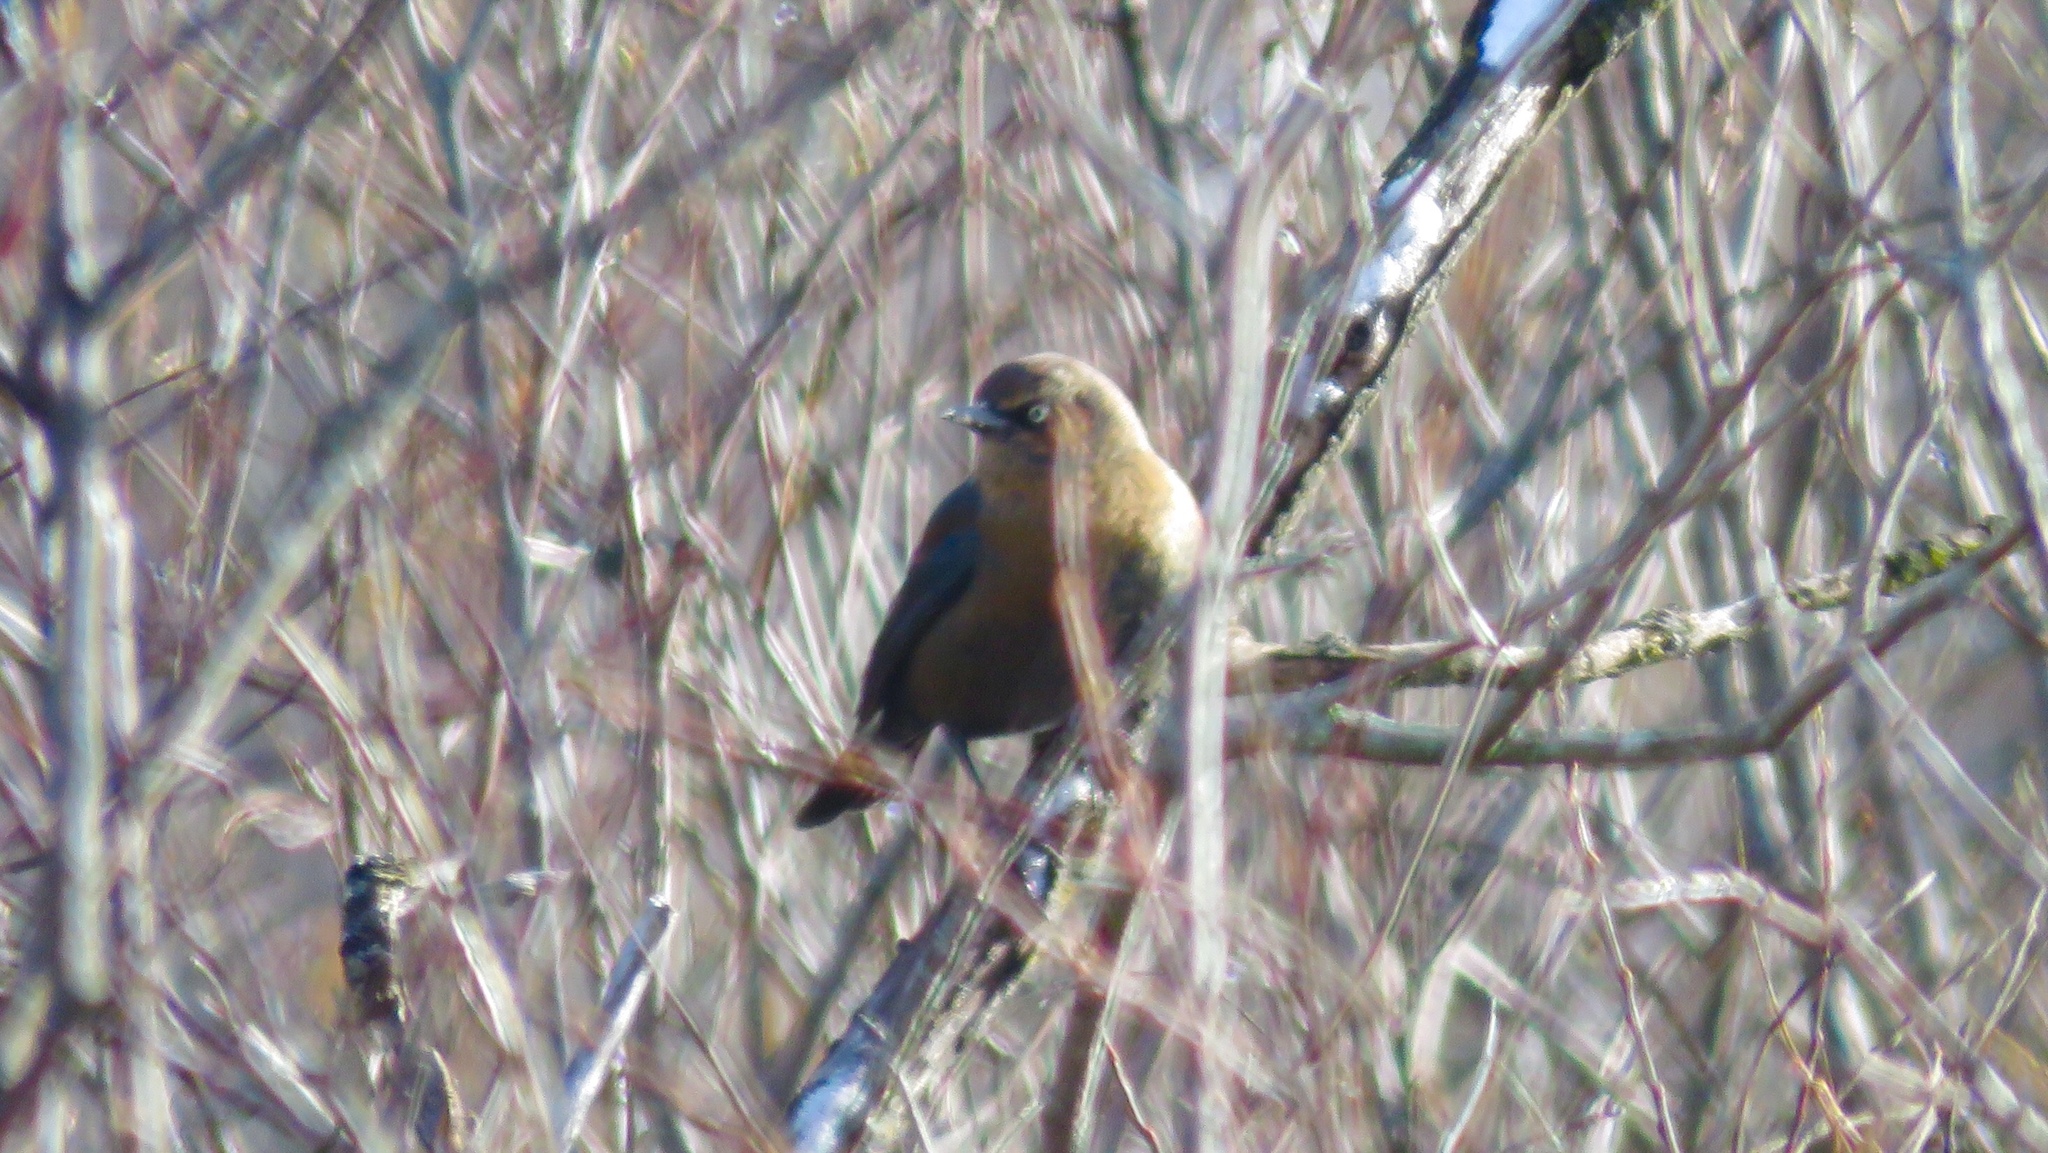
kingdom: Animalia
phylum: Chordata
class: Aves
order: Passeriformes
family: Icteridae
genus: Euphagus
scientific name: Euphagus carolinus
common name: Rusty blackbird
